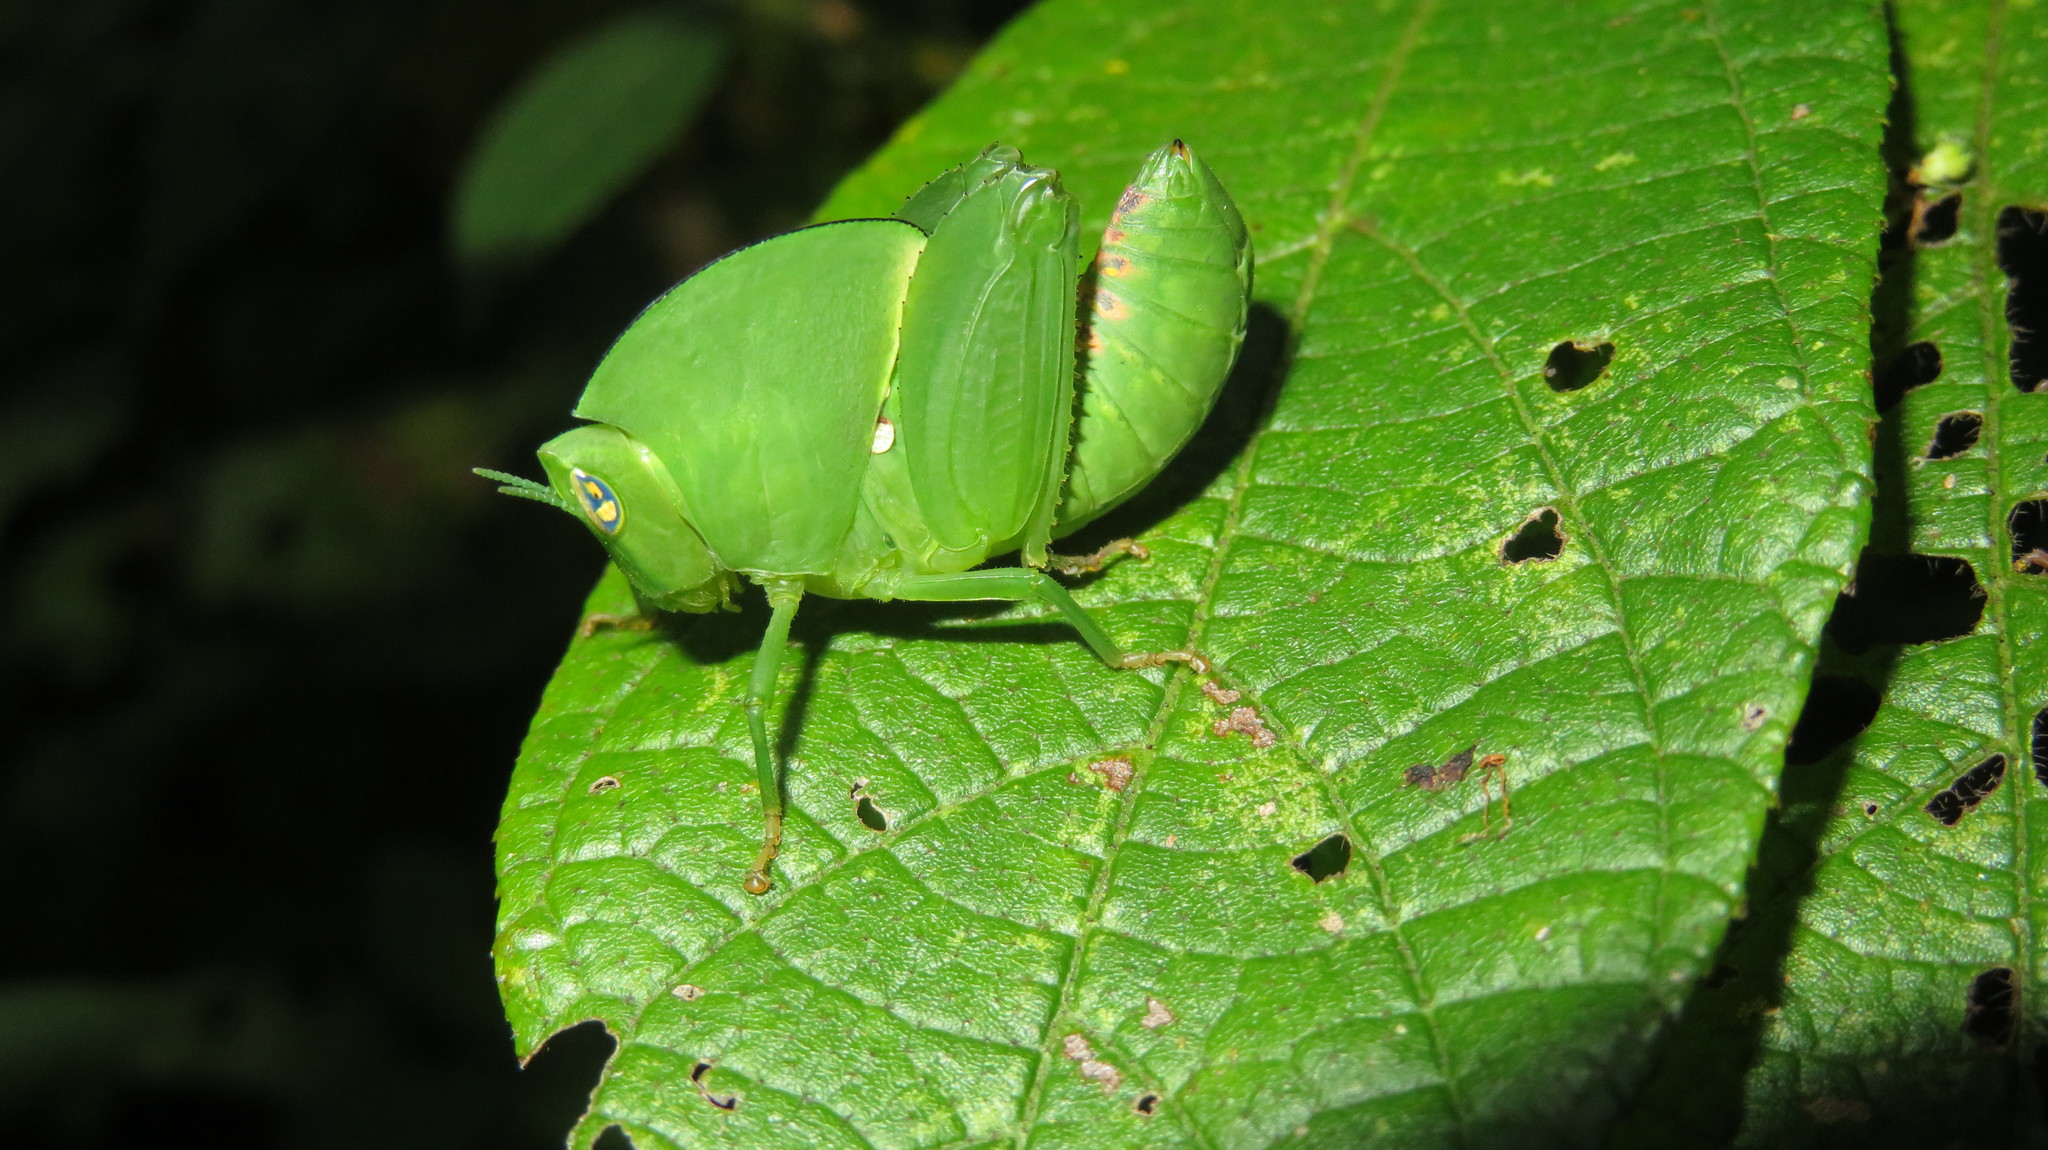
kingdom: Animalia
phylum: Arthropoda
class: Insecta
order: Orthoptera
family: Thericleidae
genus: Plagiotriptus
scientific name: Plagiotriptus hippiscus
